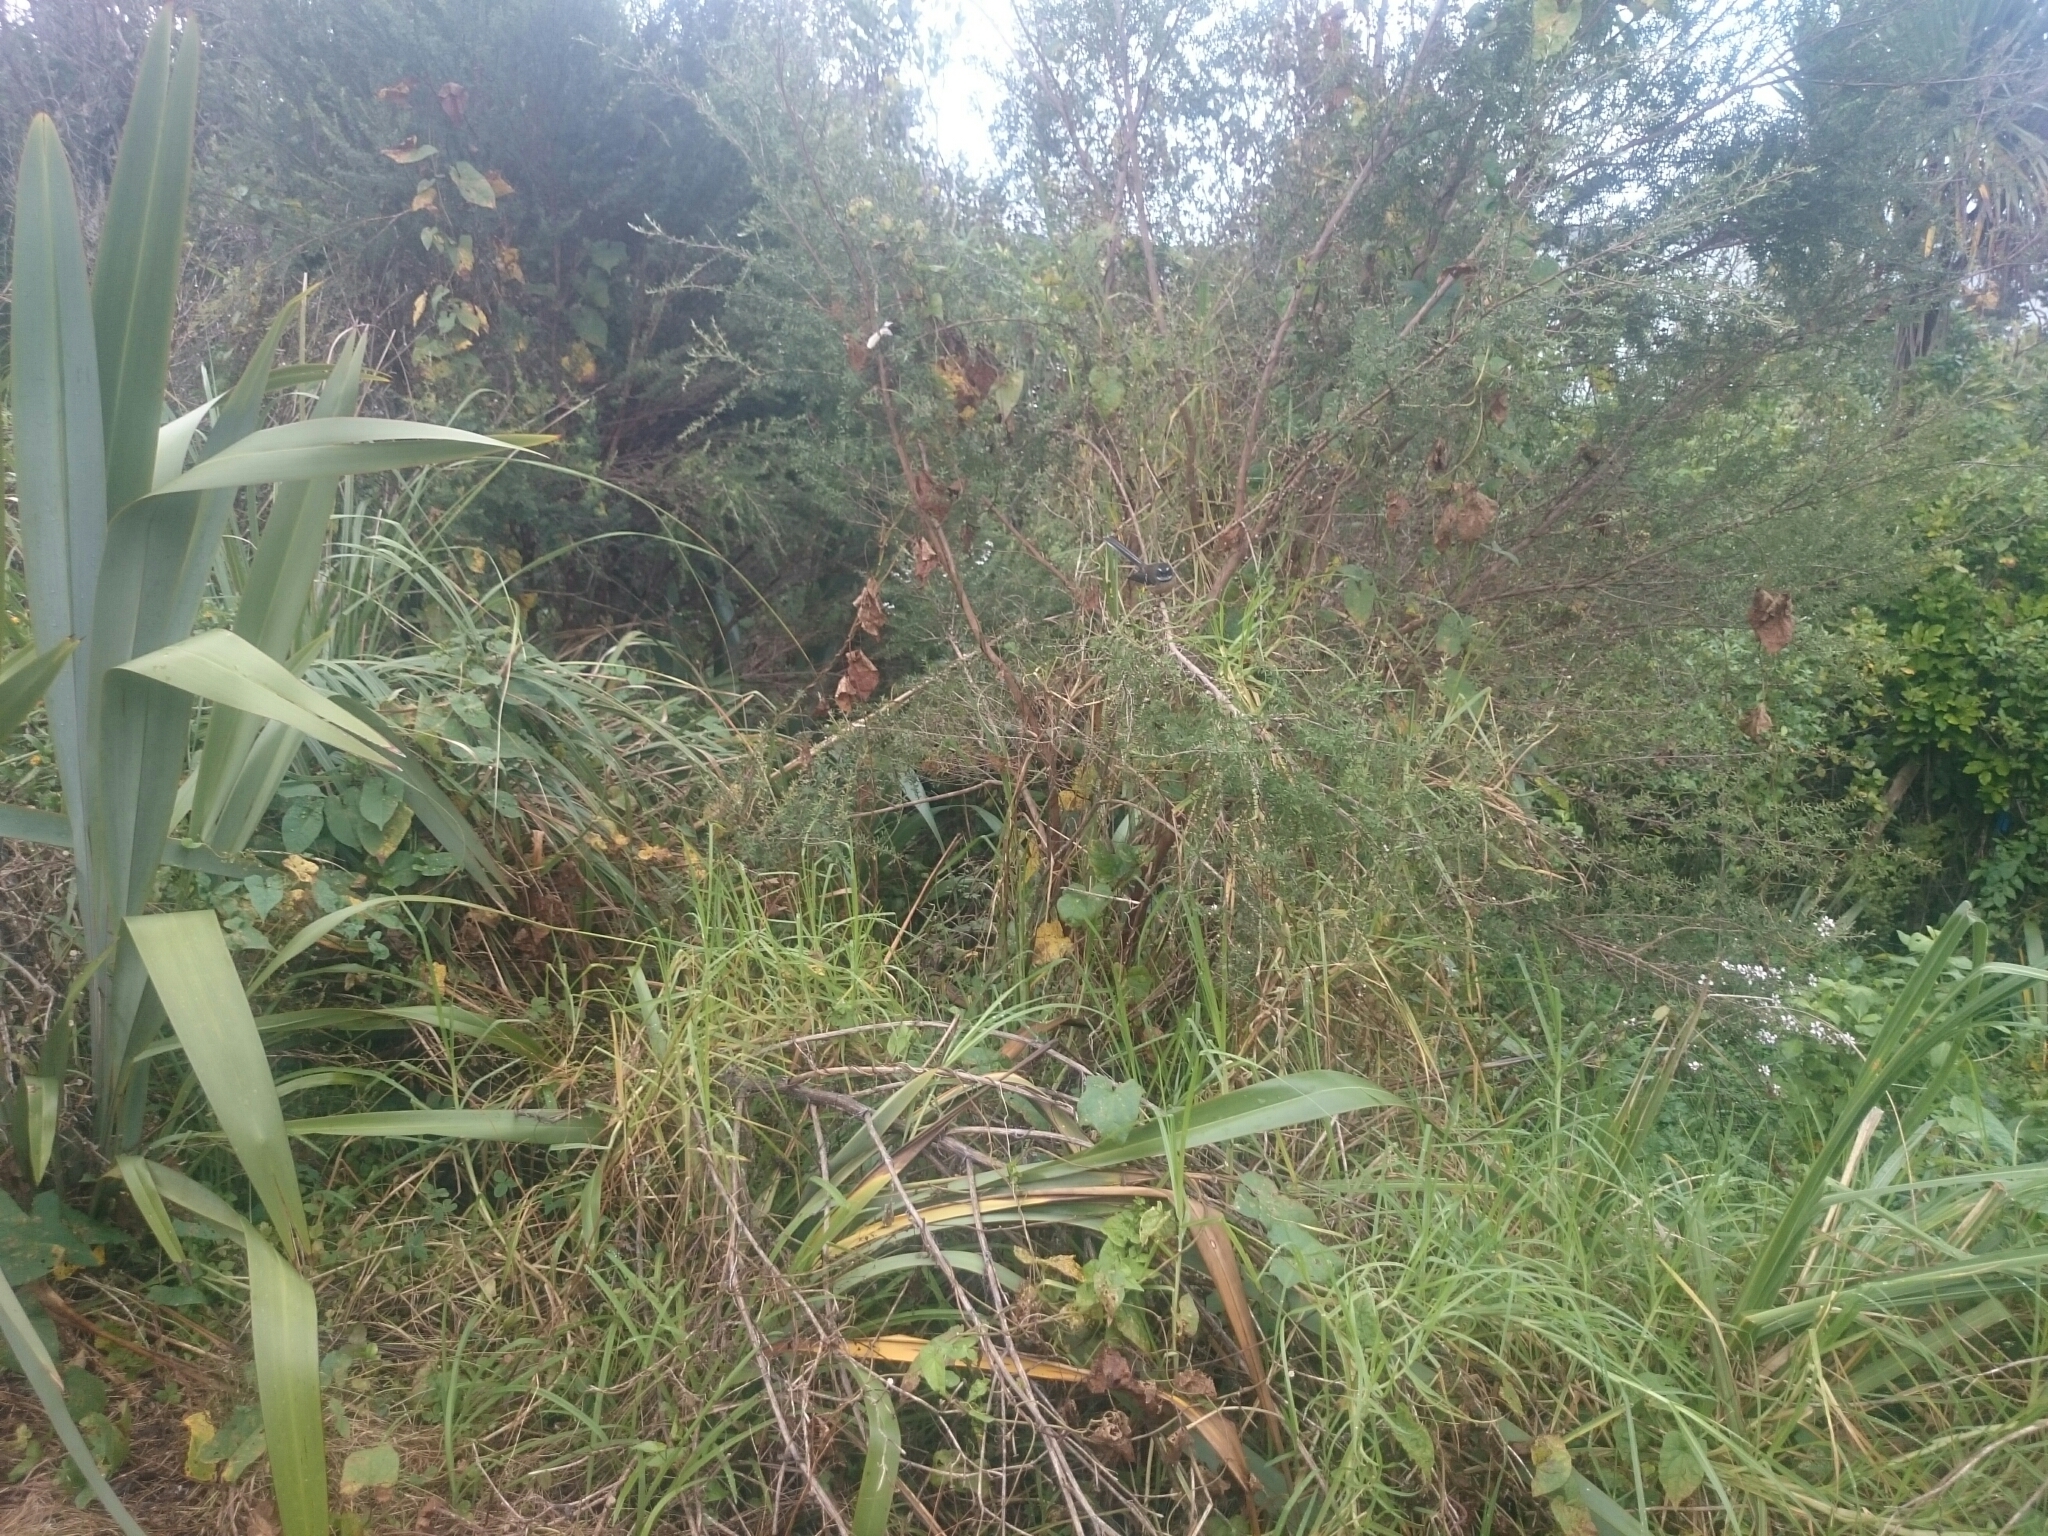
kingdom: Animalia
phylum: Chordata
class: Aves
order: Passeriformes
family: Rhipiduridae
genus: Rhipidura
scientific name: Rhipidura fuliginosa
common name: New zealand fantail
